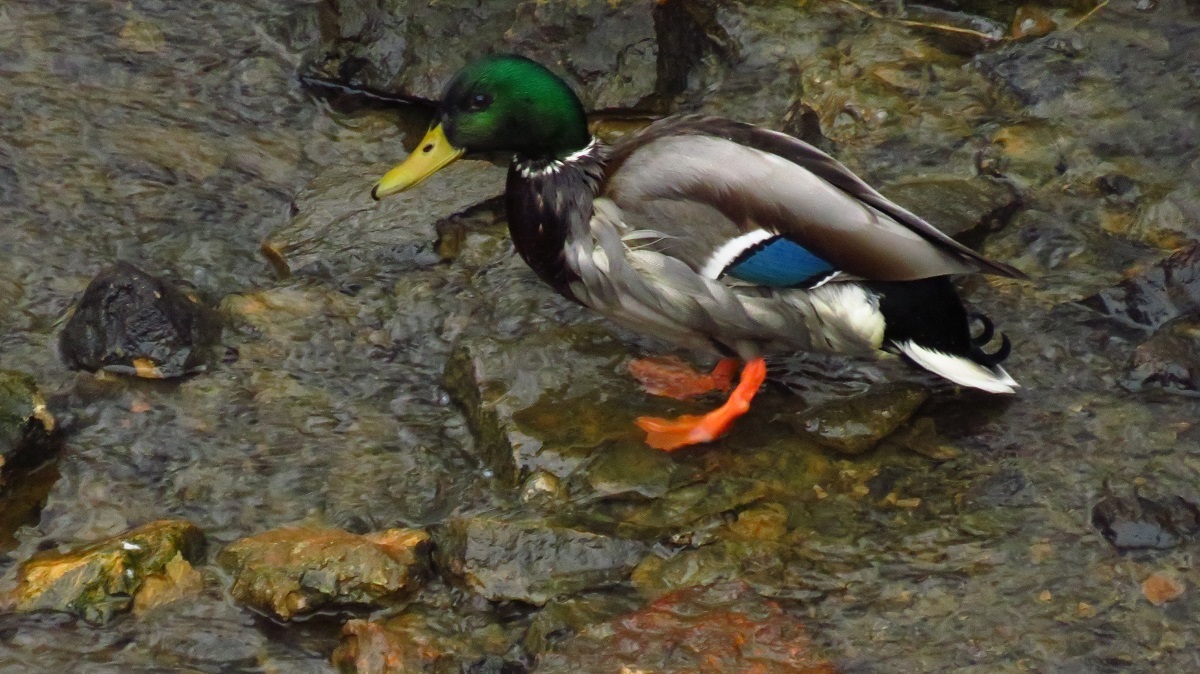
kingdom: Animalia
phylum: Chordata
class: Aves
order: Anseriformes
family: Anatidae
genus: Anas
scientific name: Anas platyrhynchos
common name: Mallard
